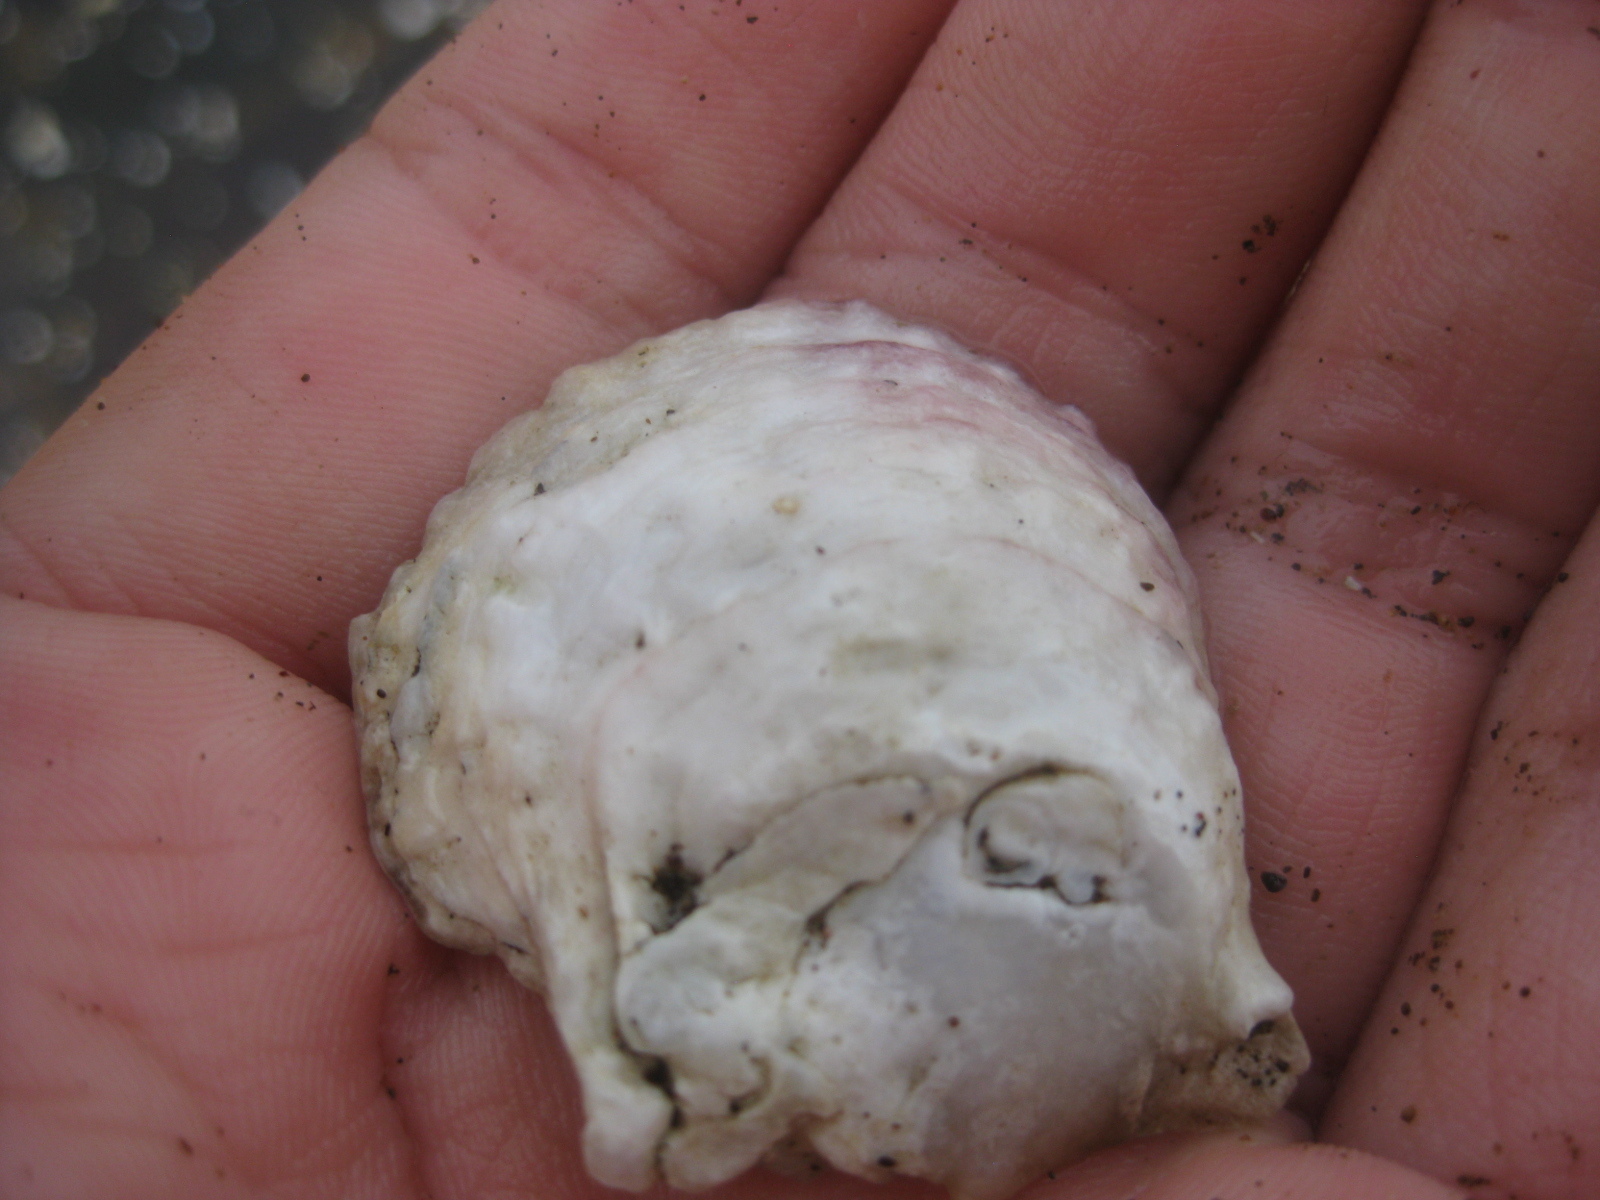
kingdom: Animalia
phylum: Mollusca
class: Bivalvia
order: Ostreida
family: Ostreidae
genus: Ostrea
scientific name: Ostrea chilensis
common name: Chilean oyster
